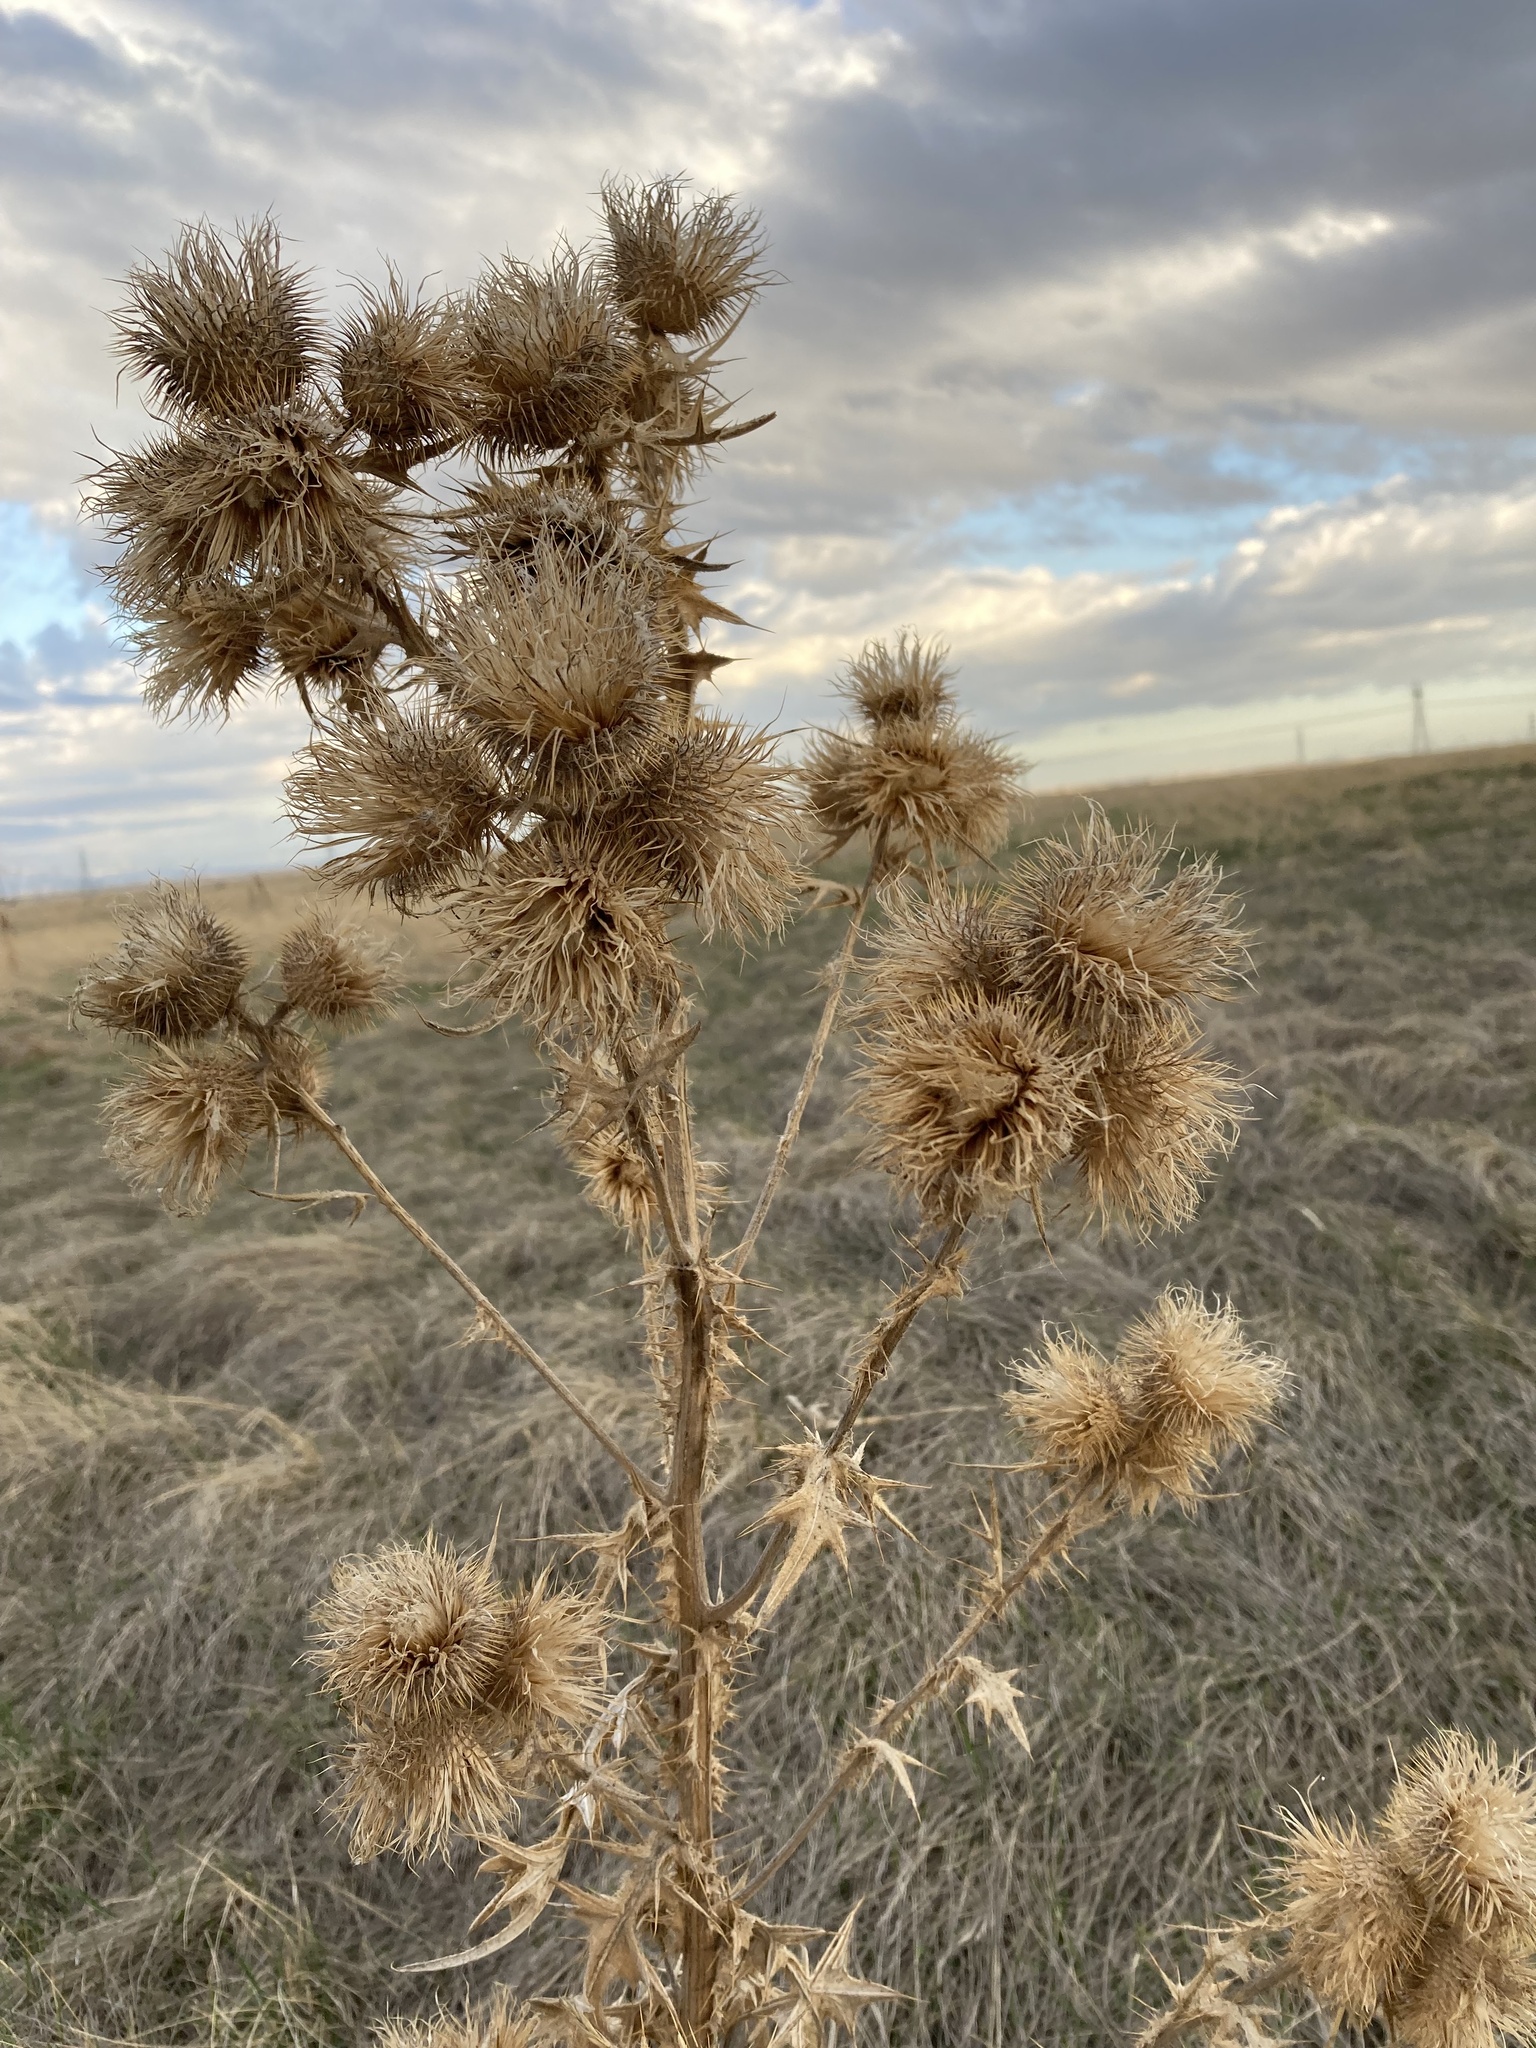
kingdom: Plantae
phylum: Tracheophyta
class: Magnoliopsida
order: Asterales
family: Asteraceae
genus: Cirsium
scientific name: Cirsium vulgare
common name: Bull thistle
